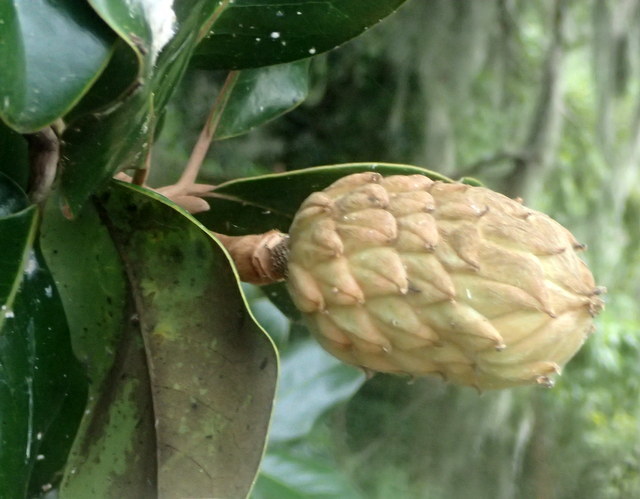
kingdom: Plantae
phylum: Tracheophyta
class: Magnoliopsida
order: Magnoliales
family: Magnoliaceae
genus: Magnolia
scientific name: Magnolia grandiflora
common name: Southern magnolia
